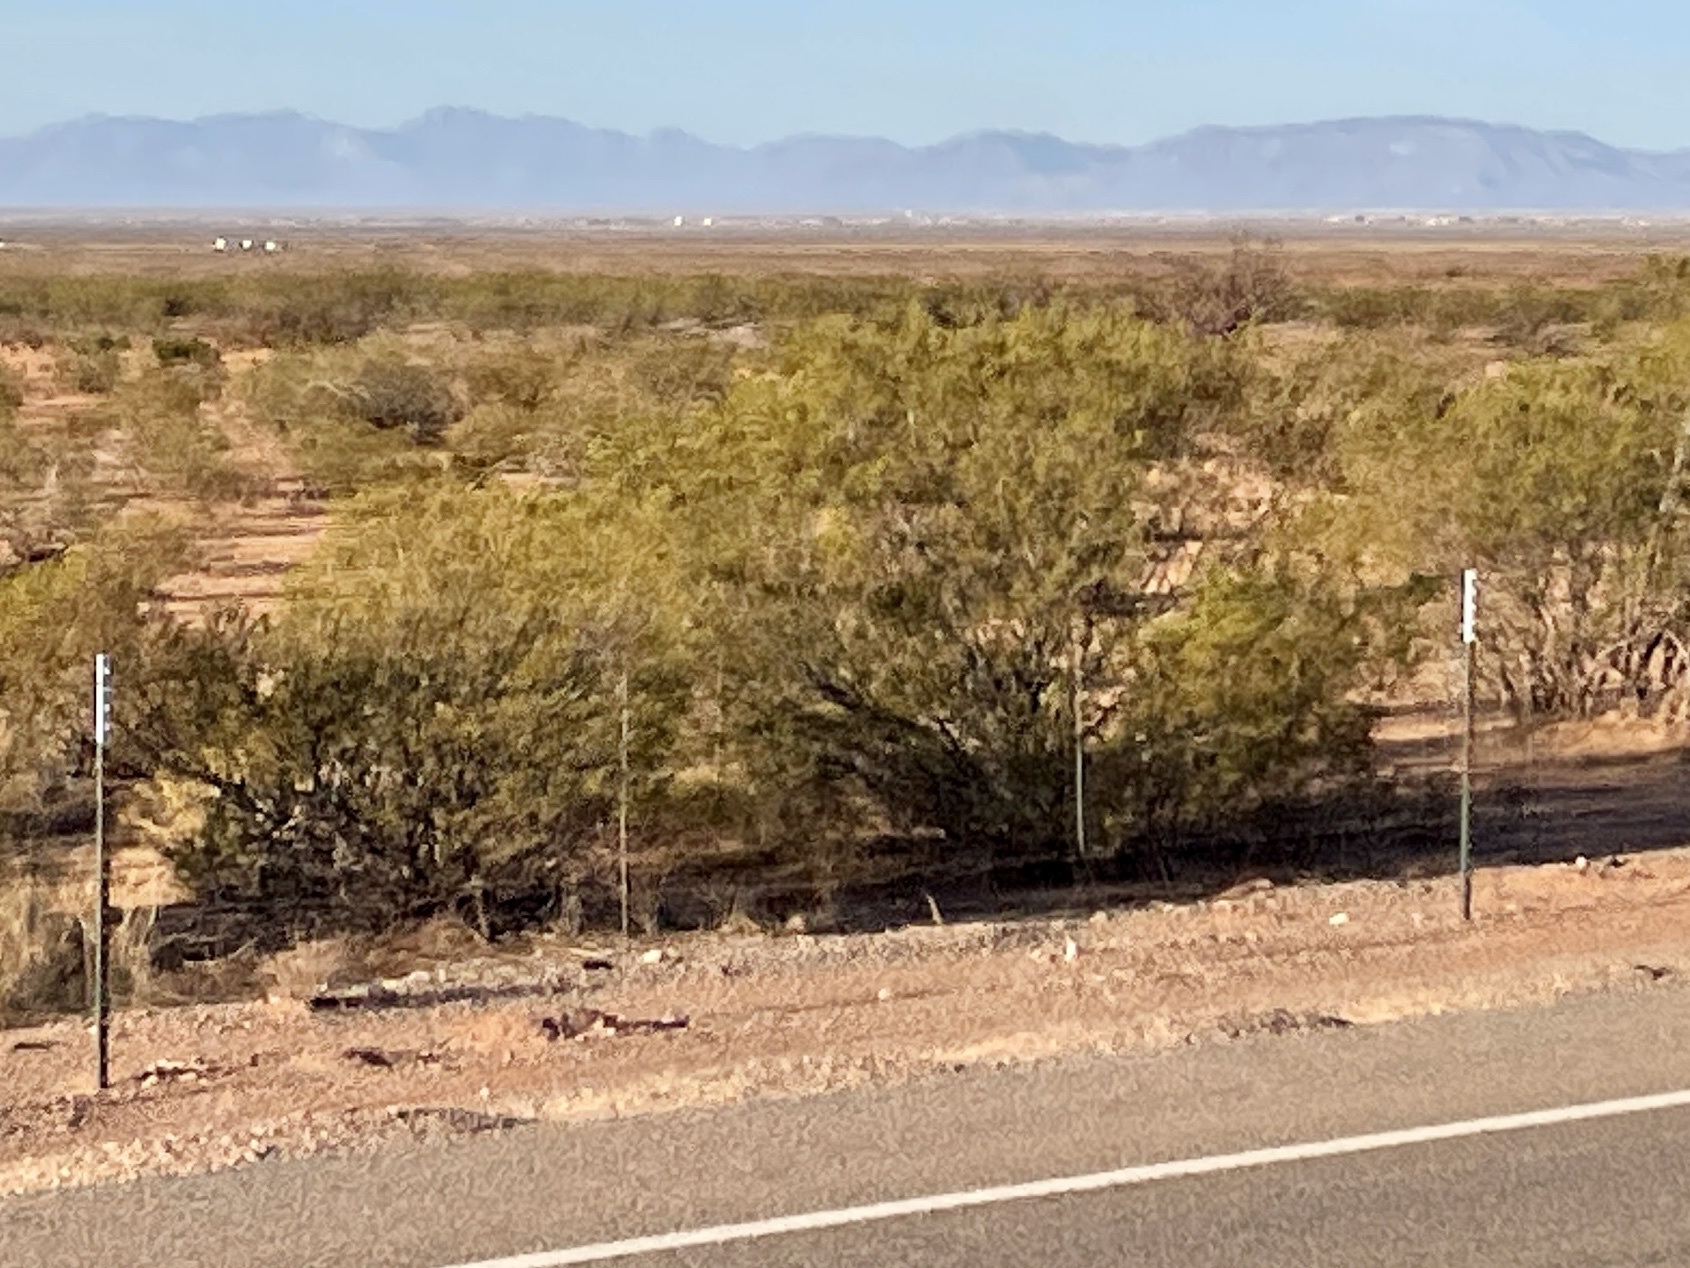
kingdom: Plantae
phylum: Tracheophyta
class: Magnoliopsida
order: Zygophyllales
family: Zygophyllaceae
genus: Larrea
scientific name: Larrea tridentata
